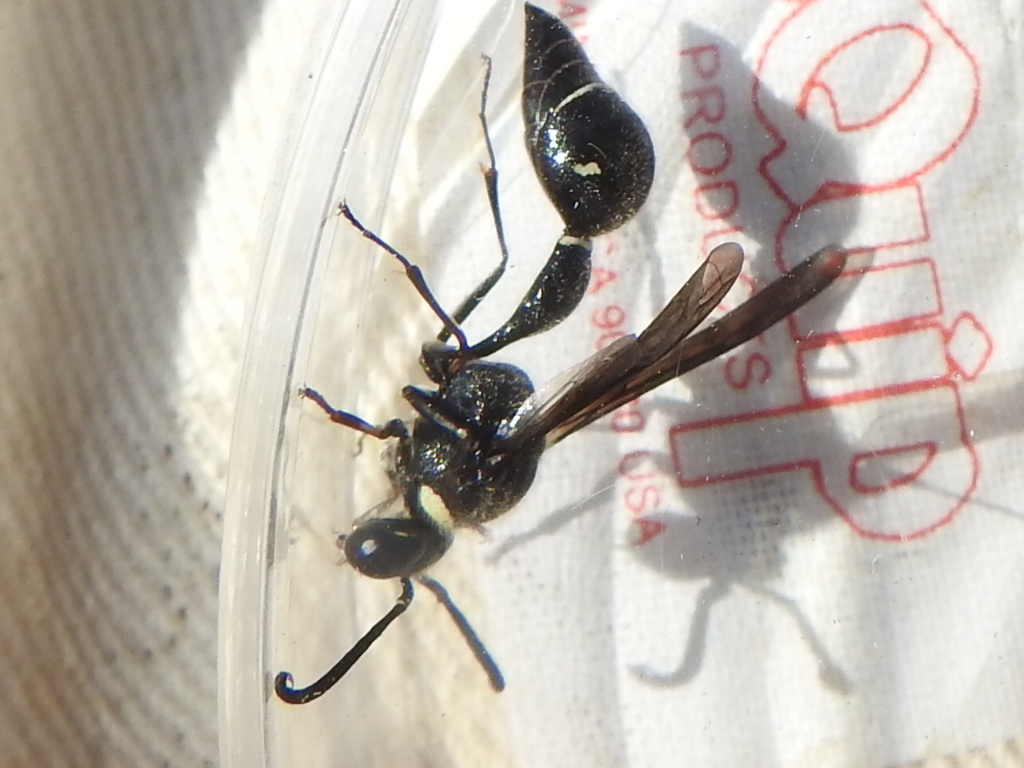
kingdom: Animalia
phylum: Arthropoda
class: Insecta
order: Hymenoptera
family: Vespidae
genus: Eumenes
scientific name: Eumenes fraternus
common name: Fraternal potter wasp
